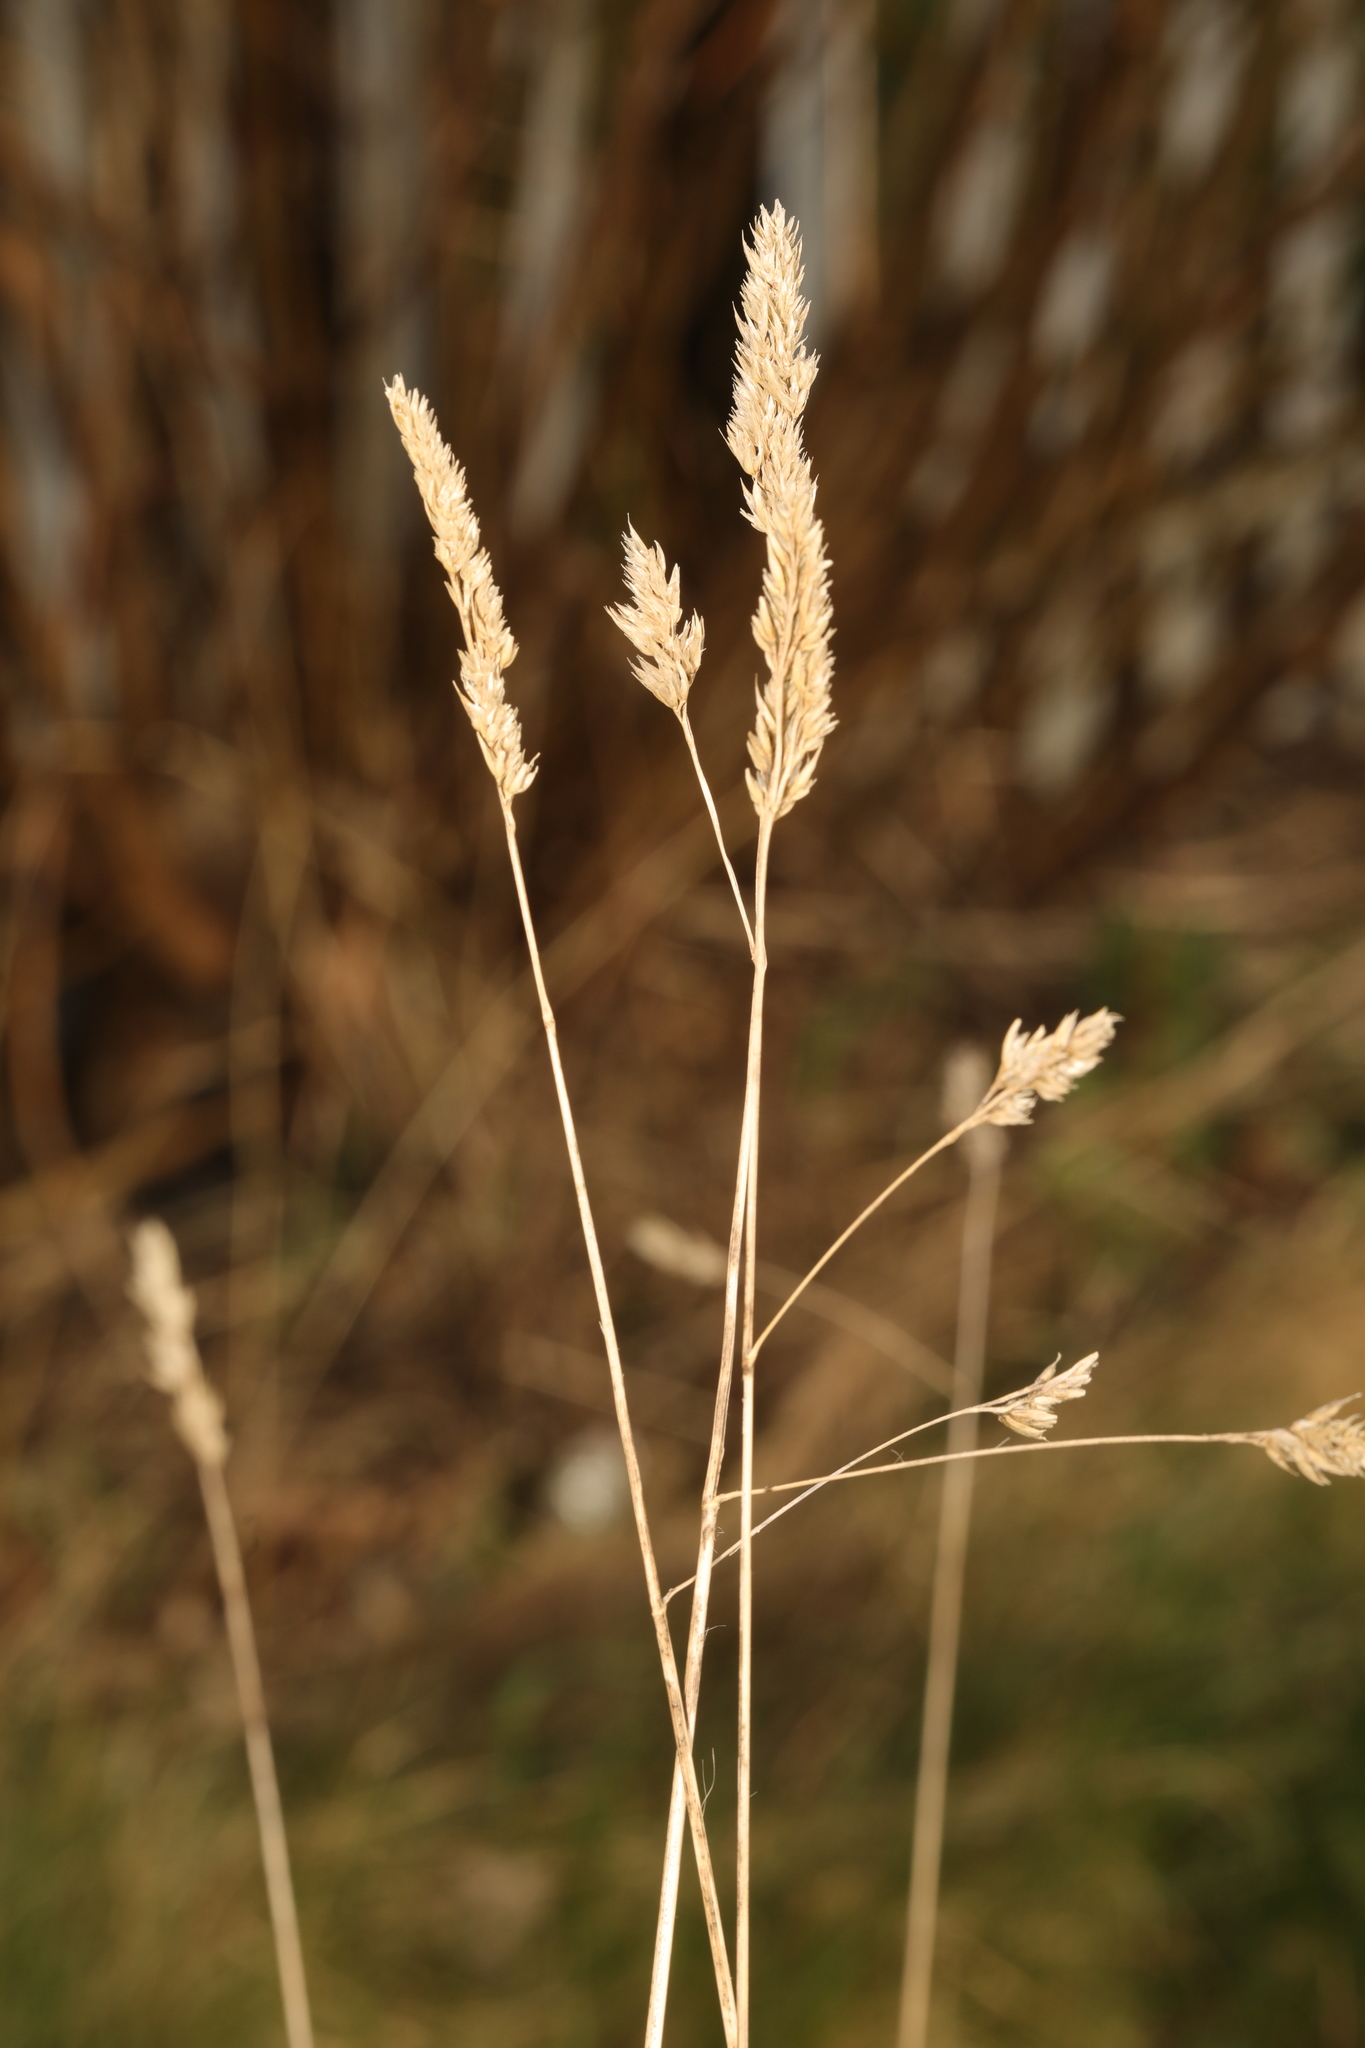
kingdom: Plantae
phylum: Tracheophyta
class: Liliopsida
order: Poales
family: Poaceae
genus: Dactylis
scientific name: Dactylis glomerata
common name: Orchardgrass
